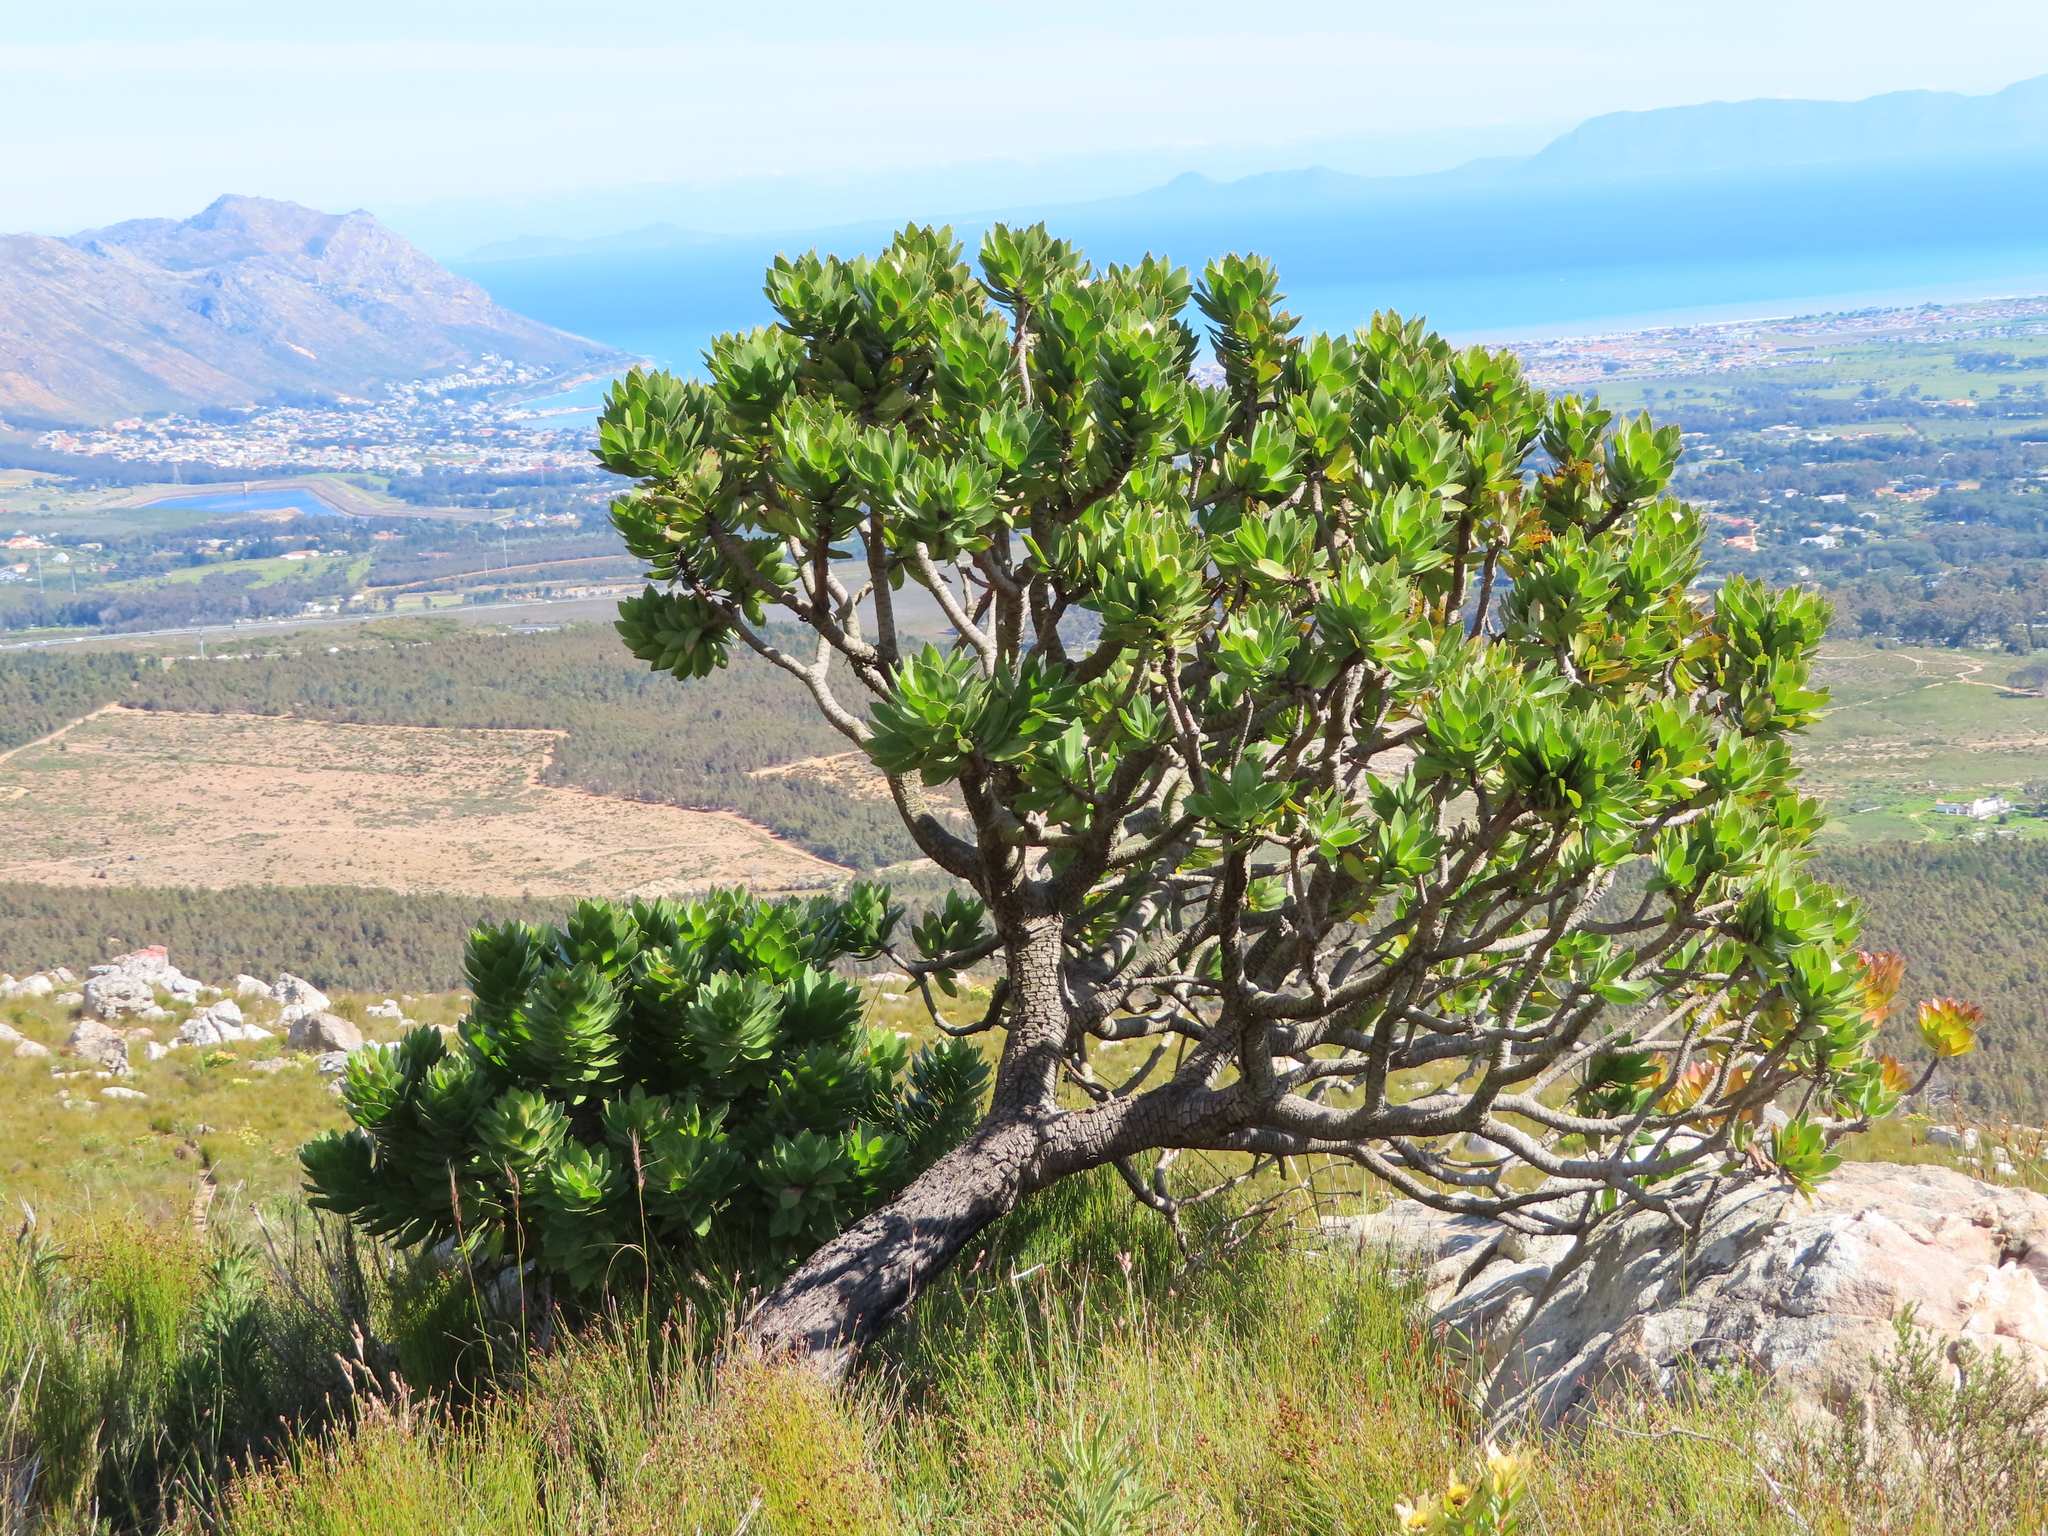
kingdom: Plantae
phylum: Tracheophyta
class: Magnoliopsida
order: Proteales
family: Proteaceae
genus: Leucospermum
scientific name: Leucospermum conocarpodendron
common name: Tree pincushion
